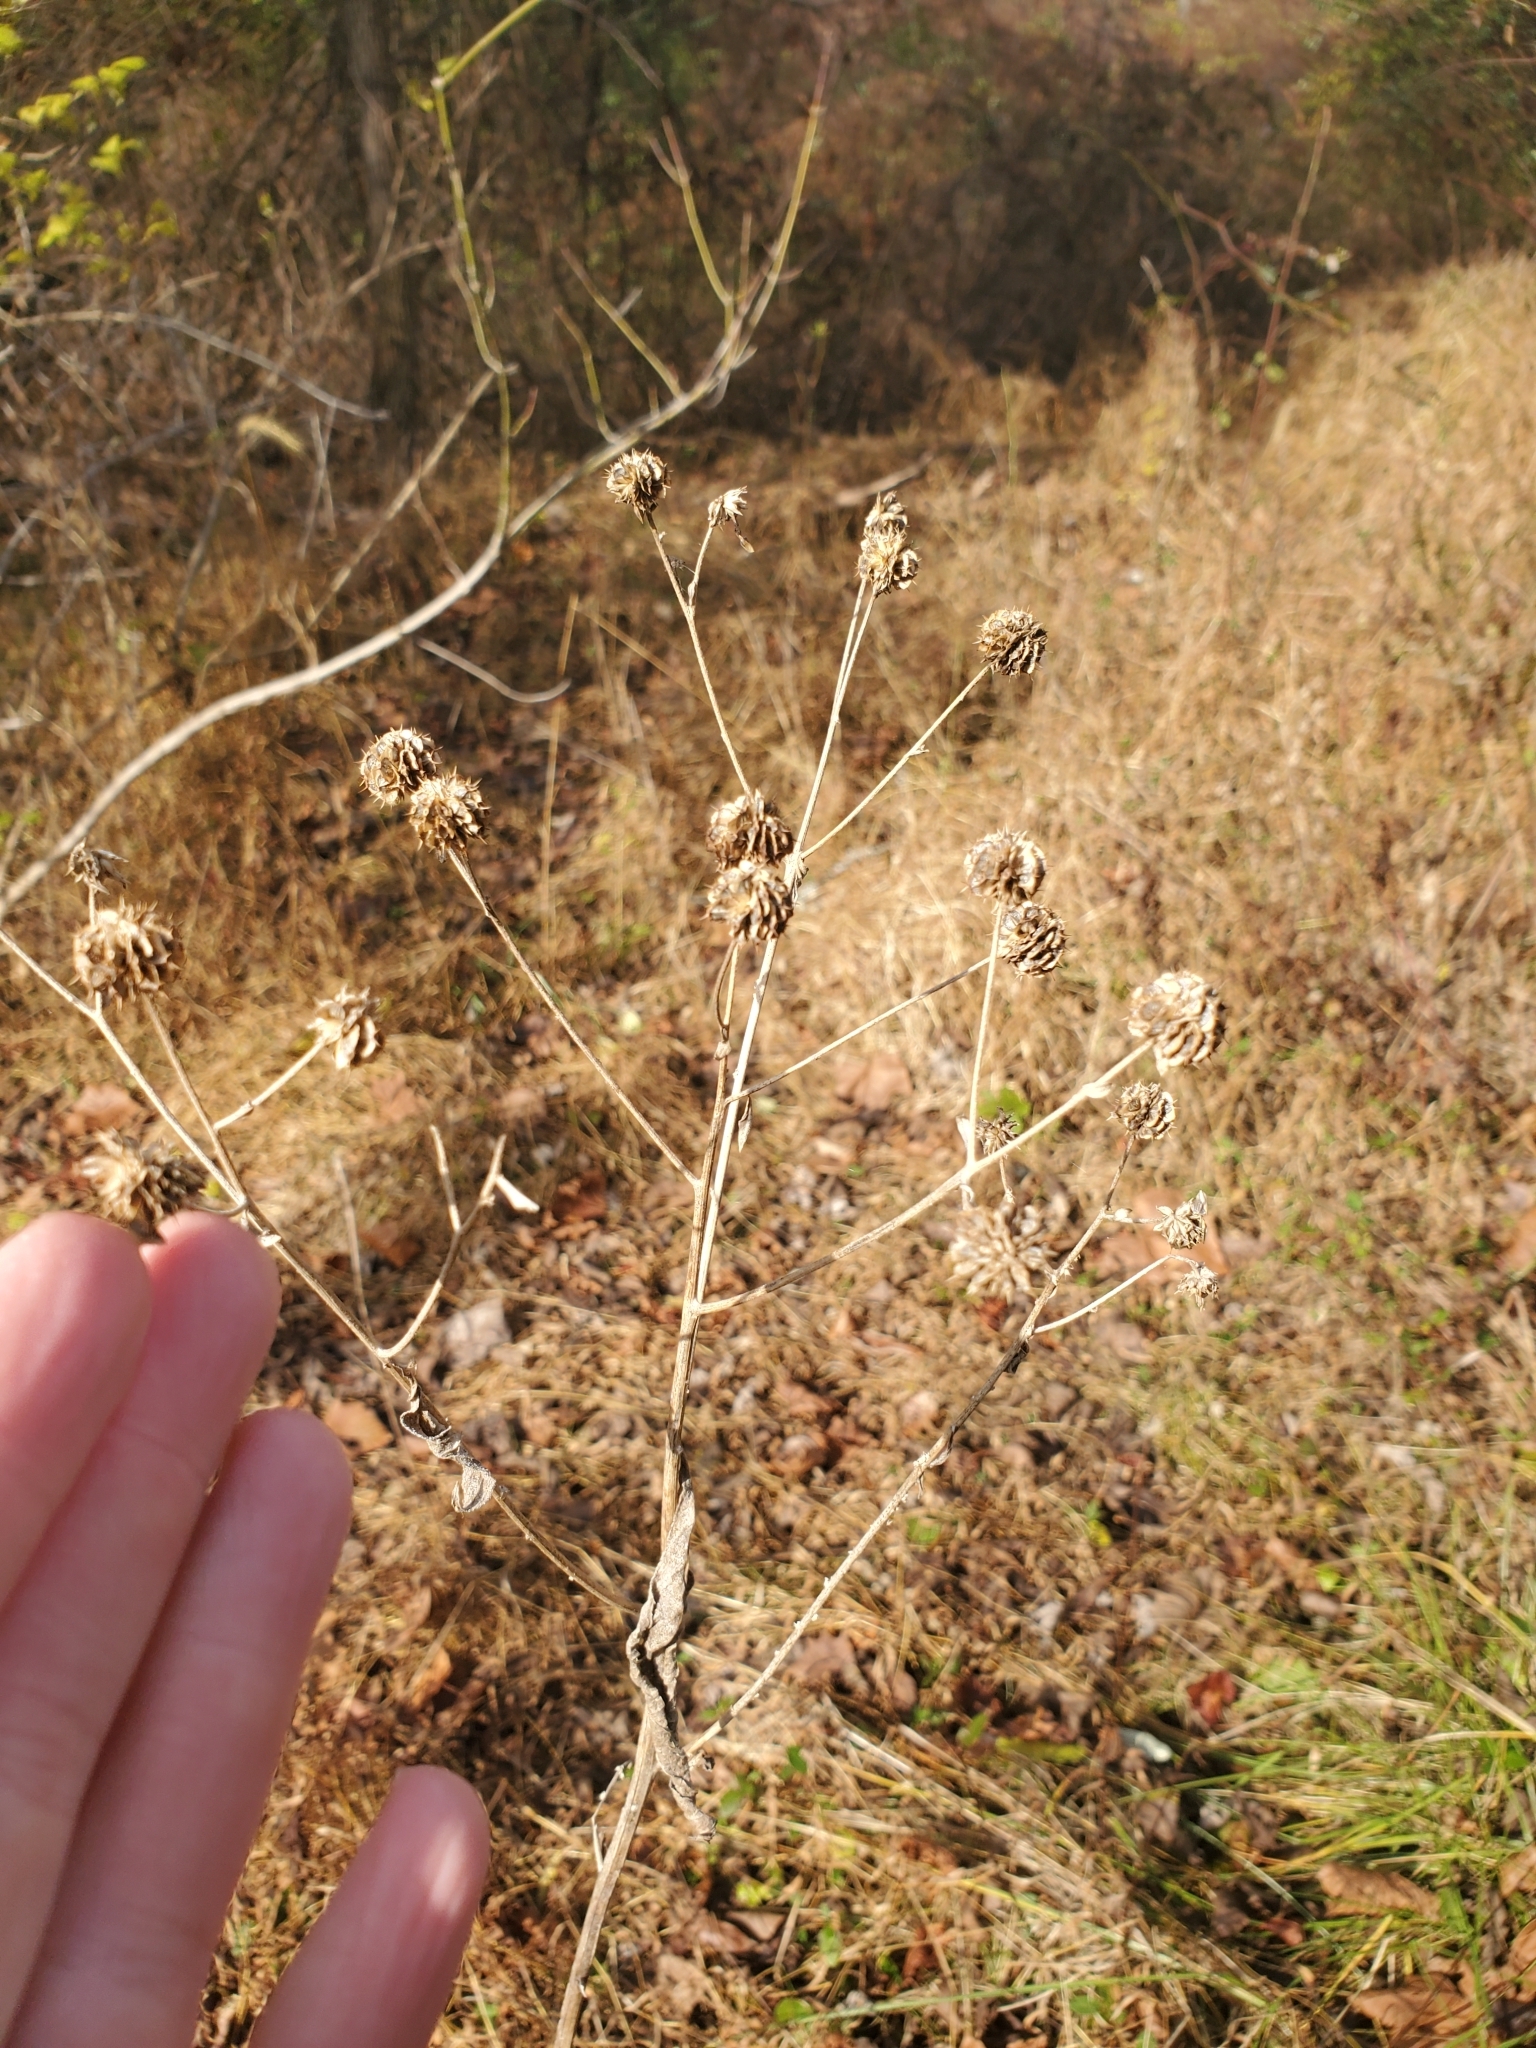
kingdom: Plantae
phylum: Tracheophyta
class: Magnoliopsida
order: Asterales
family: Asteraceae
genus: Verbesina
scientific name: Verbesina alternifolia
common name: Wingstem
